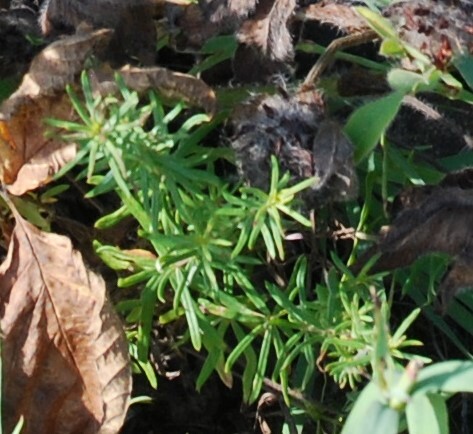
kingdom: Plantae
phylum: Tracheophyta
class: Magnoliopsida
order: Gentianales
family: Rubiaceae
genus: Galium
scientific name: Galium verum
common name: Lady's bedstraw
